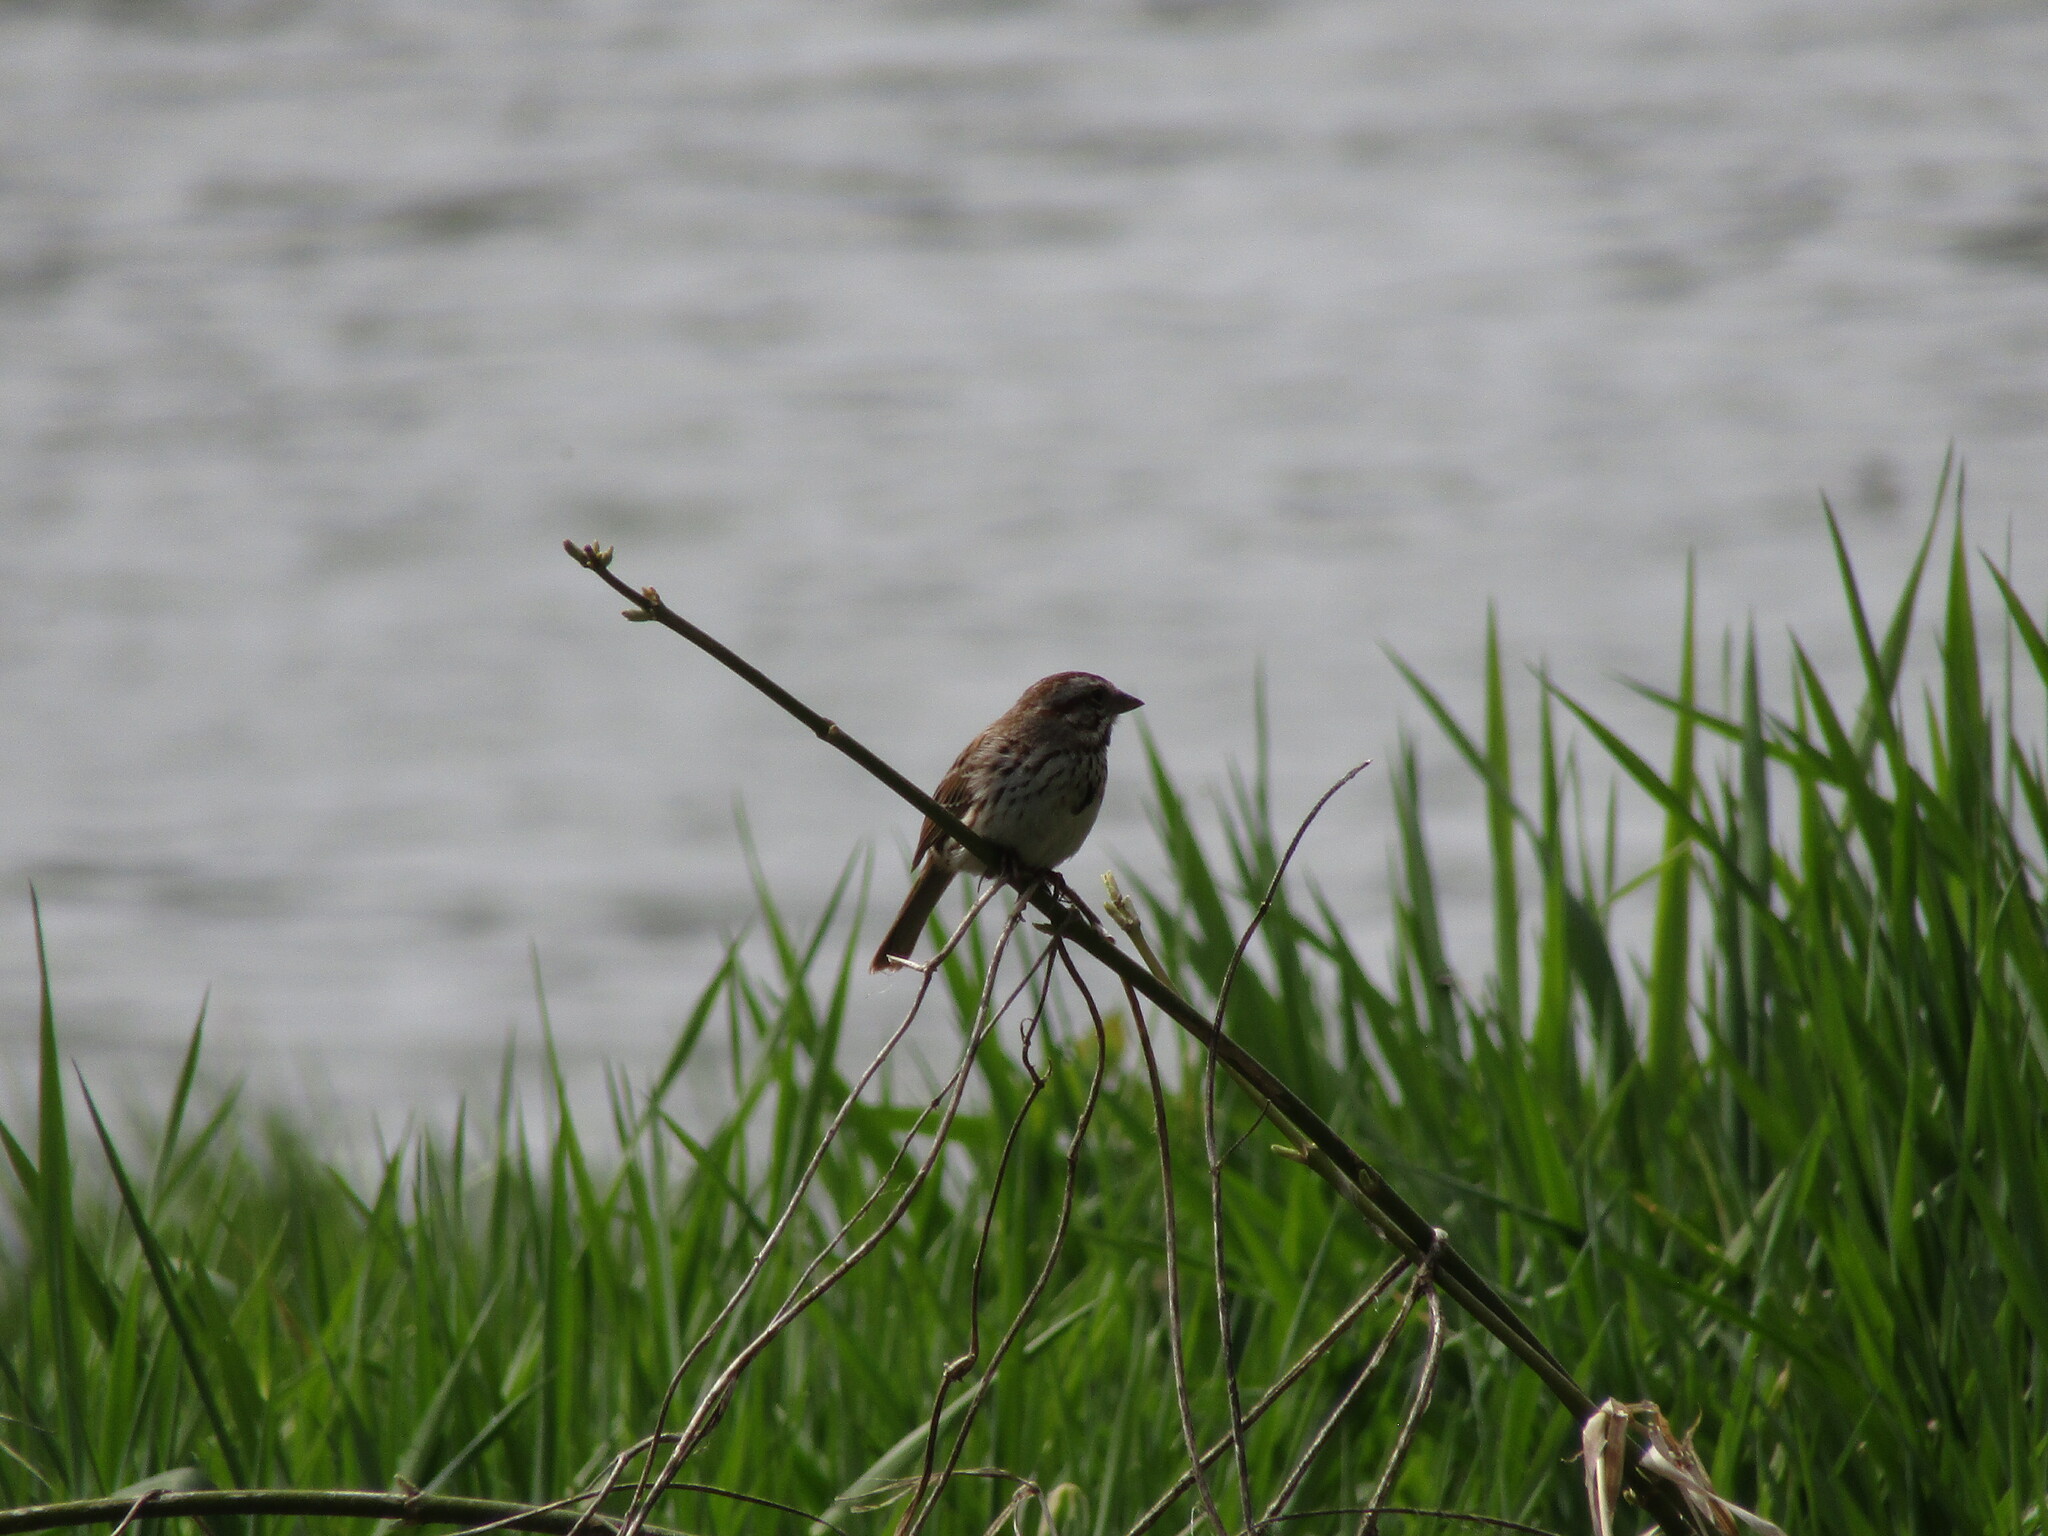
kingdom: Animalia
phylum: Chordata
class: Aves
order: Passeriformes
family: Passerellidae
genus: Melospiza
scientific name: Melospiza melodia
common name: Song sparrow
